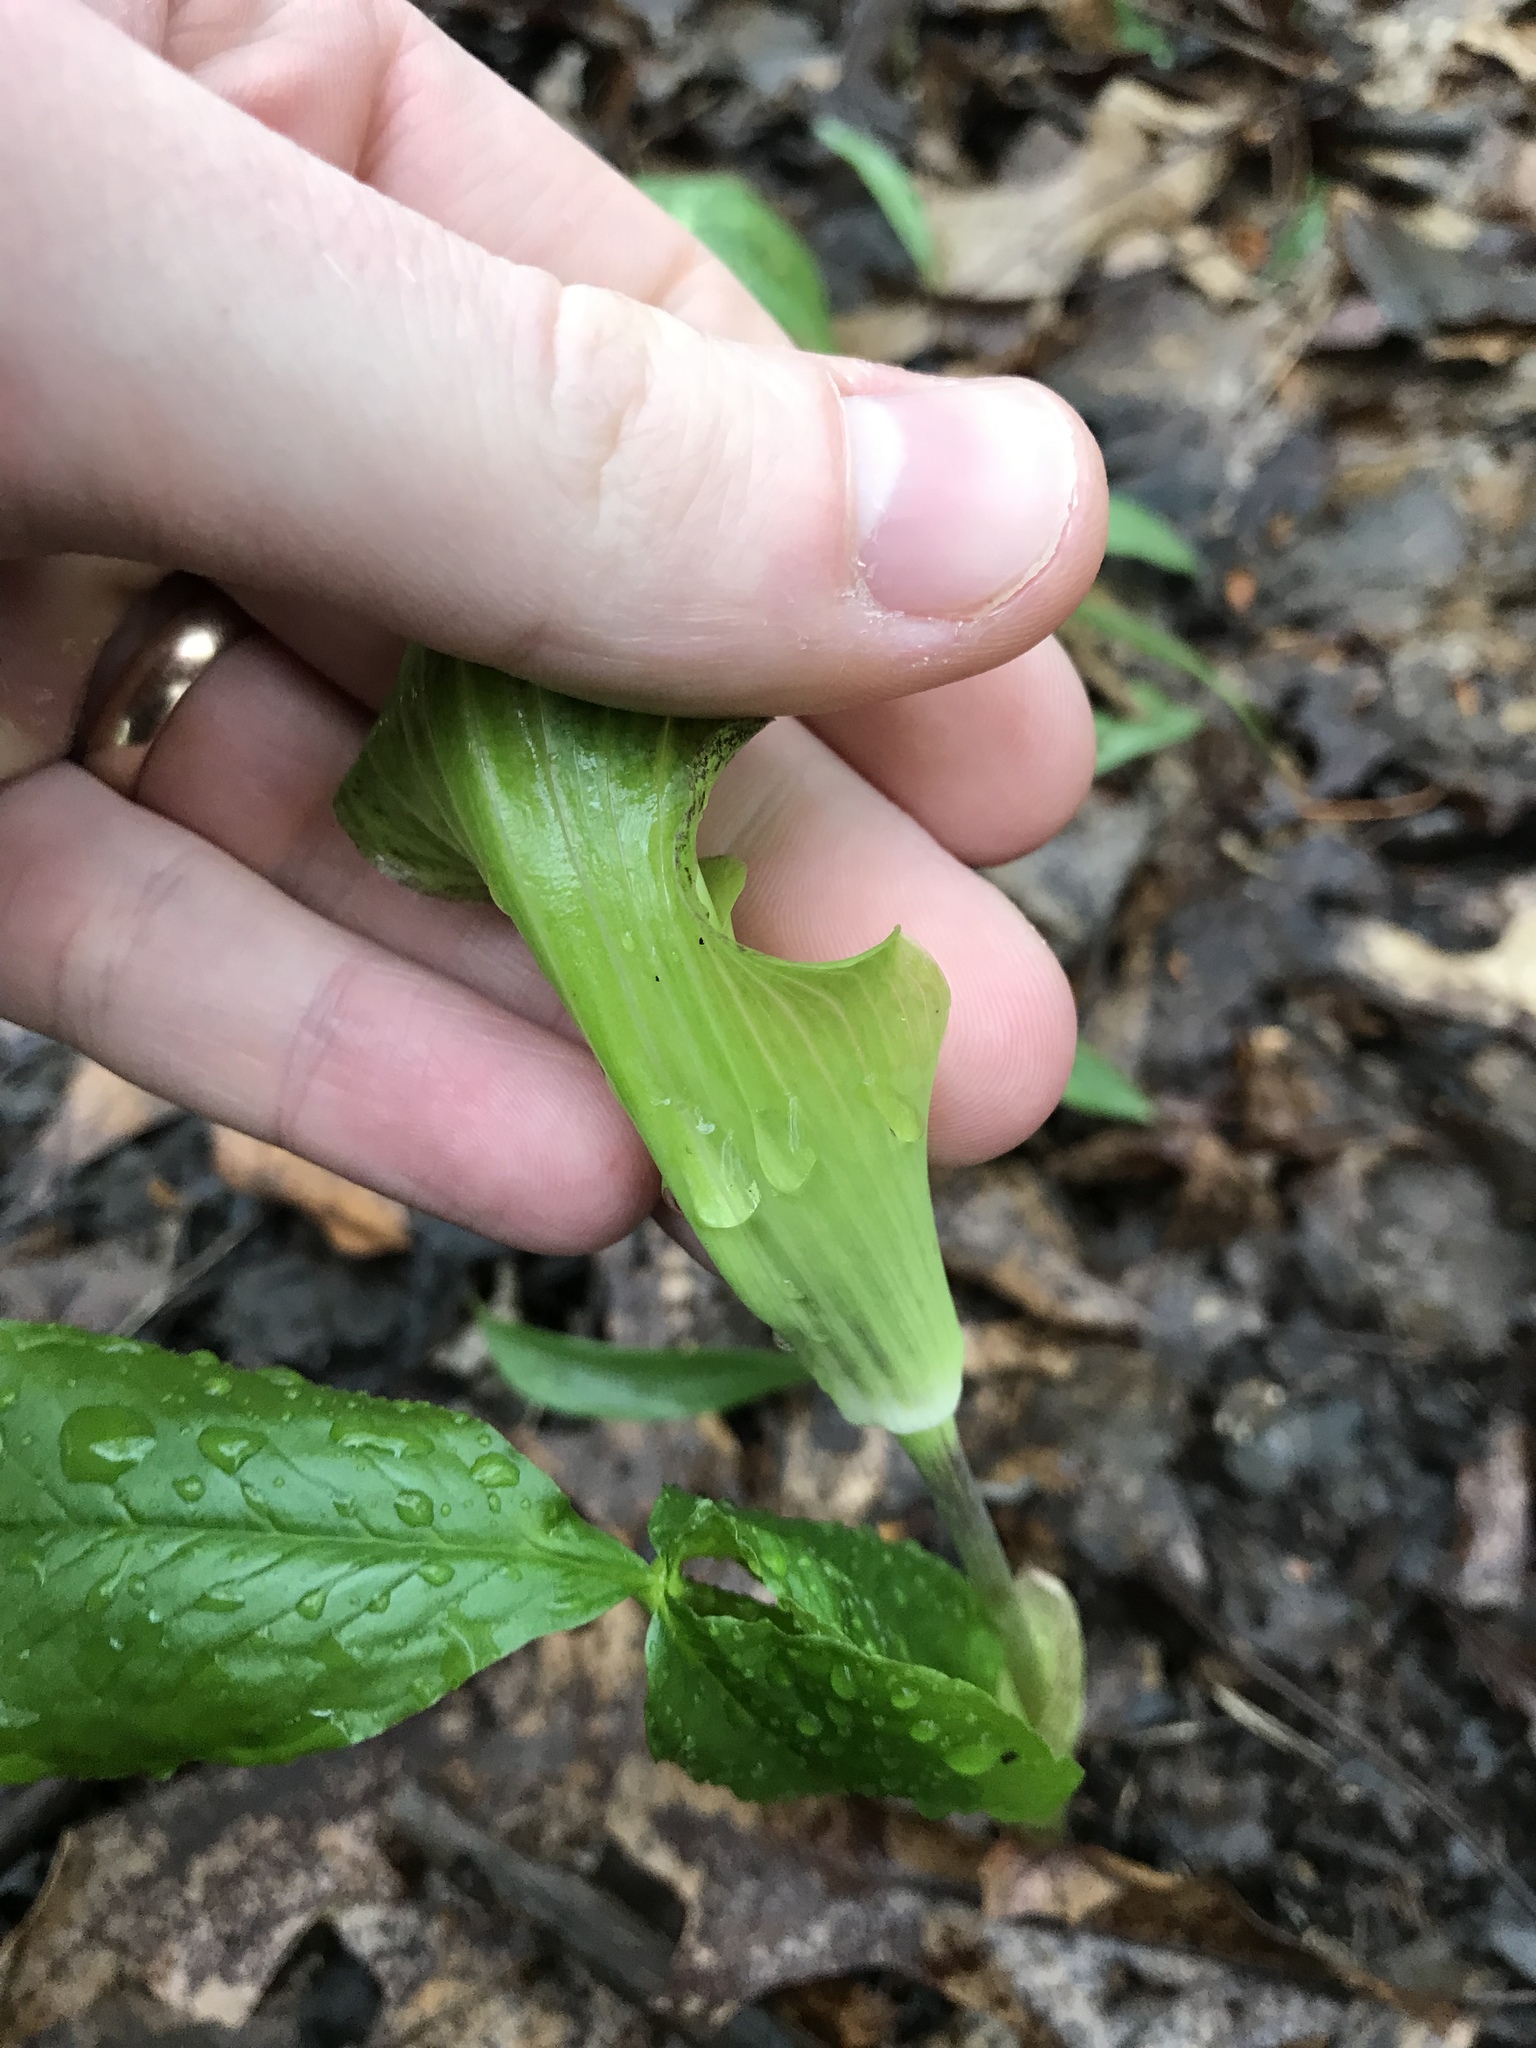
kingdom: Plantae
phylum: Tracheophyta
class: Liliopsida
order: Alismatales
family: Araceae
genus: Arisaema
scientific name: Arisaema triphyllum
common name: Jack-in-the-pulpit
